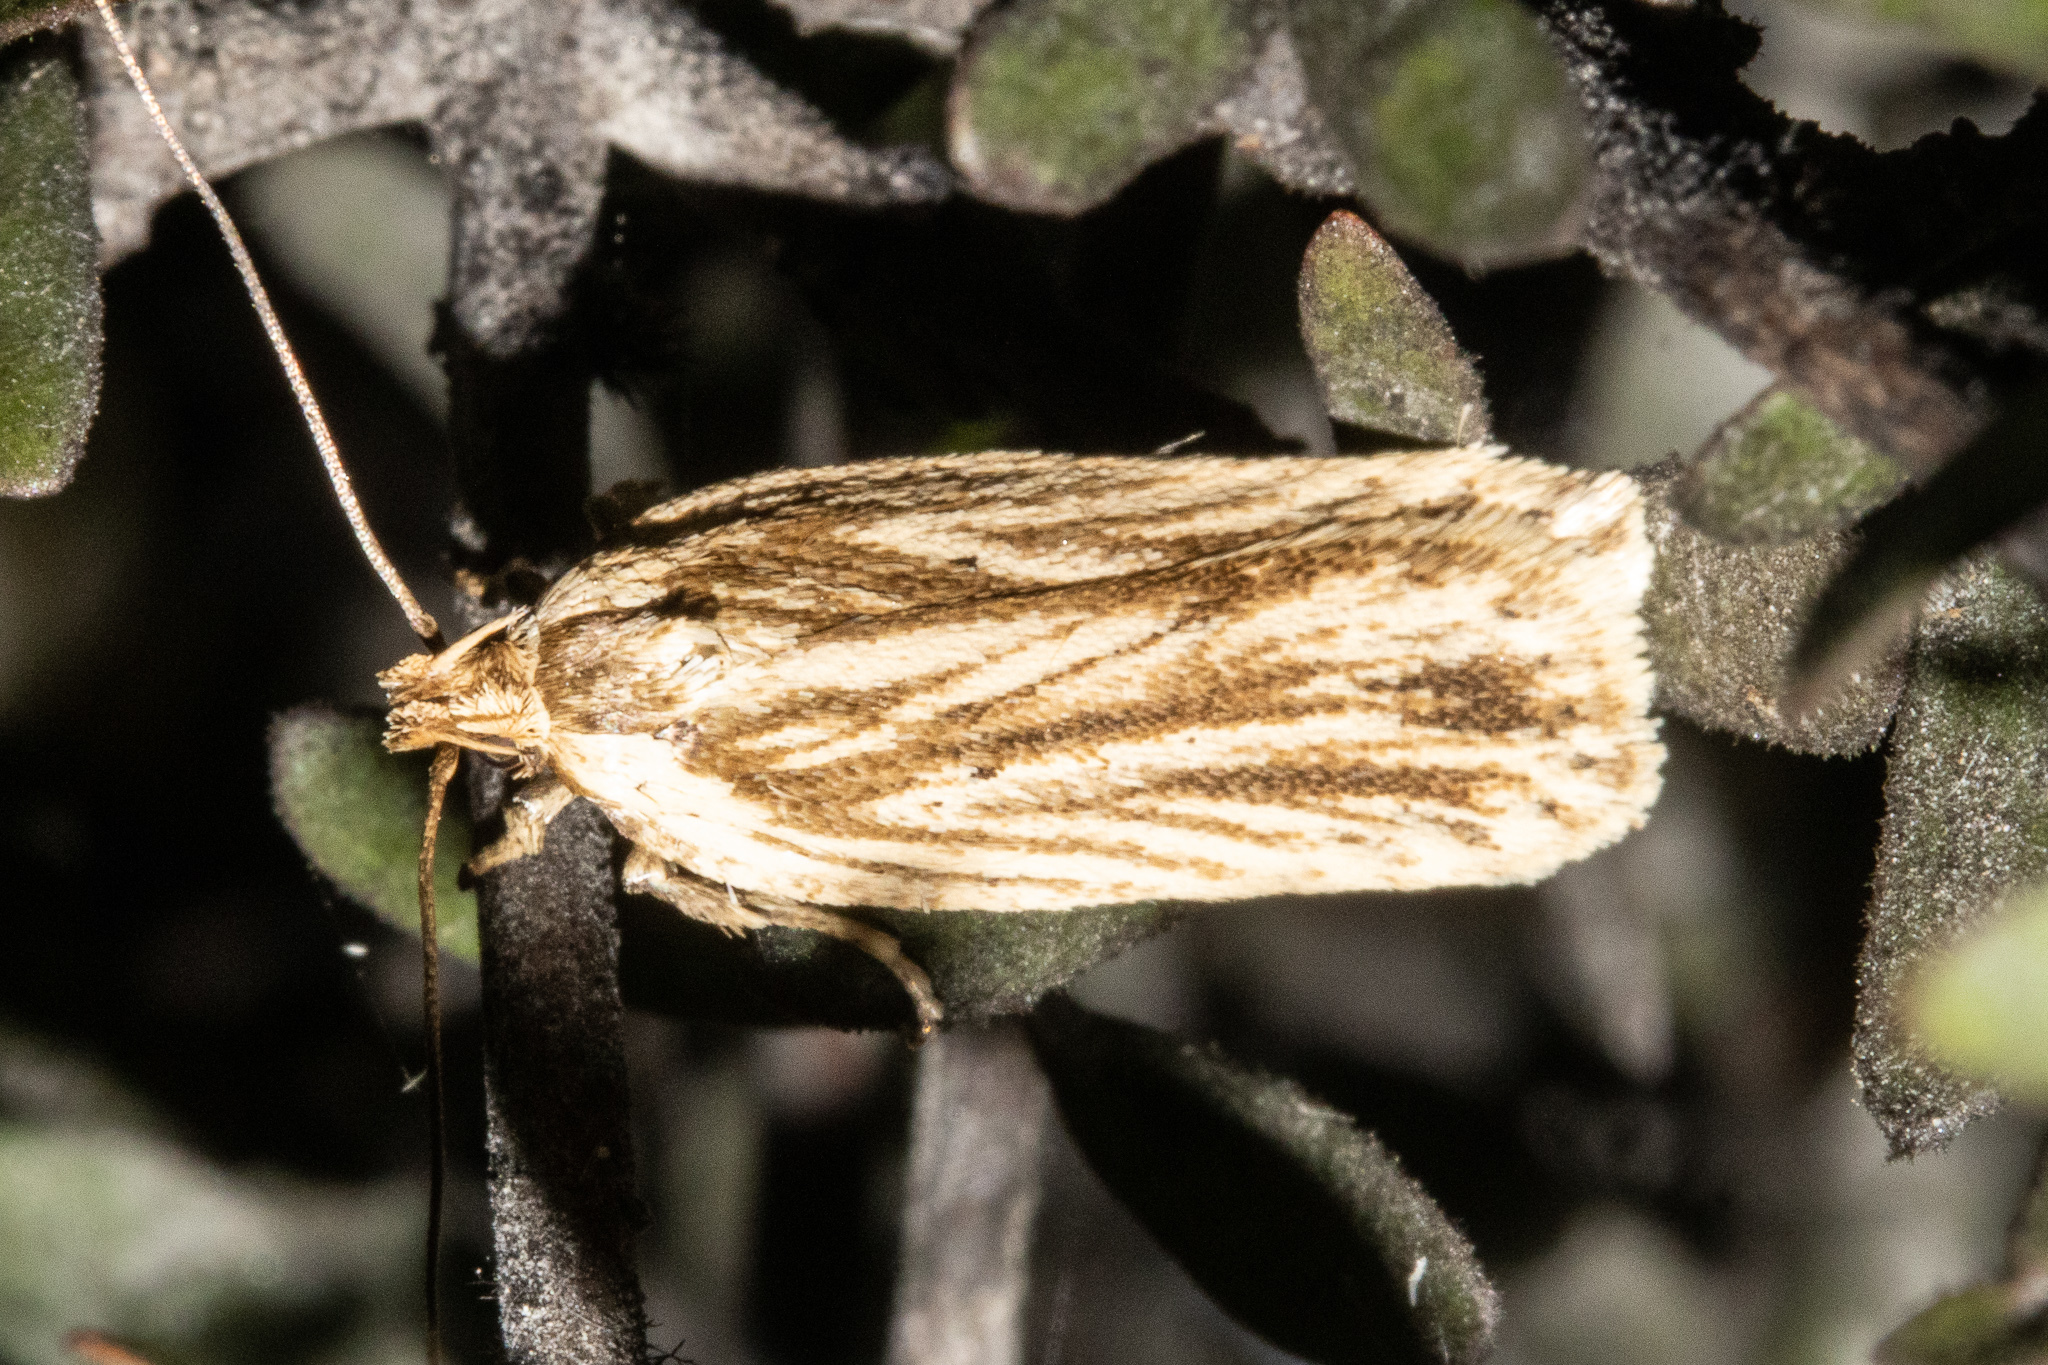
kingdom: Animalia
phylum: Arthropoda
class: Insecta
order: Lepidoptera
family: Depressariidae
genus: Agonopterix
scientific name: Agonopterix
